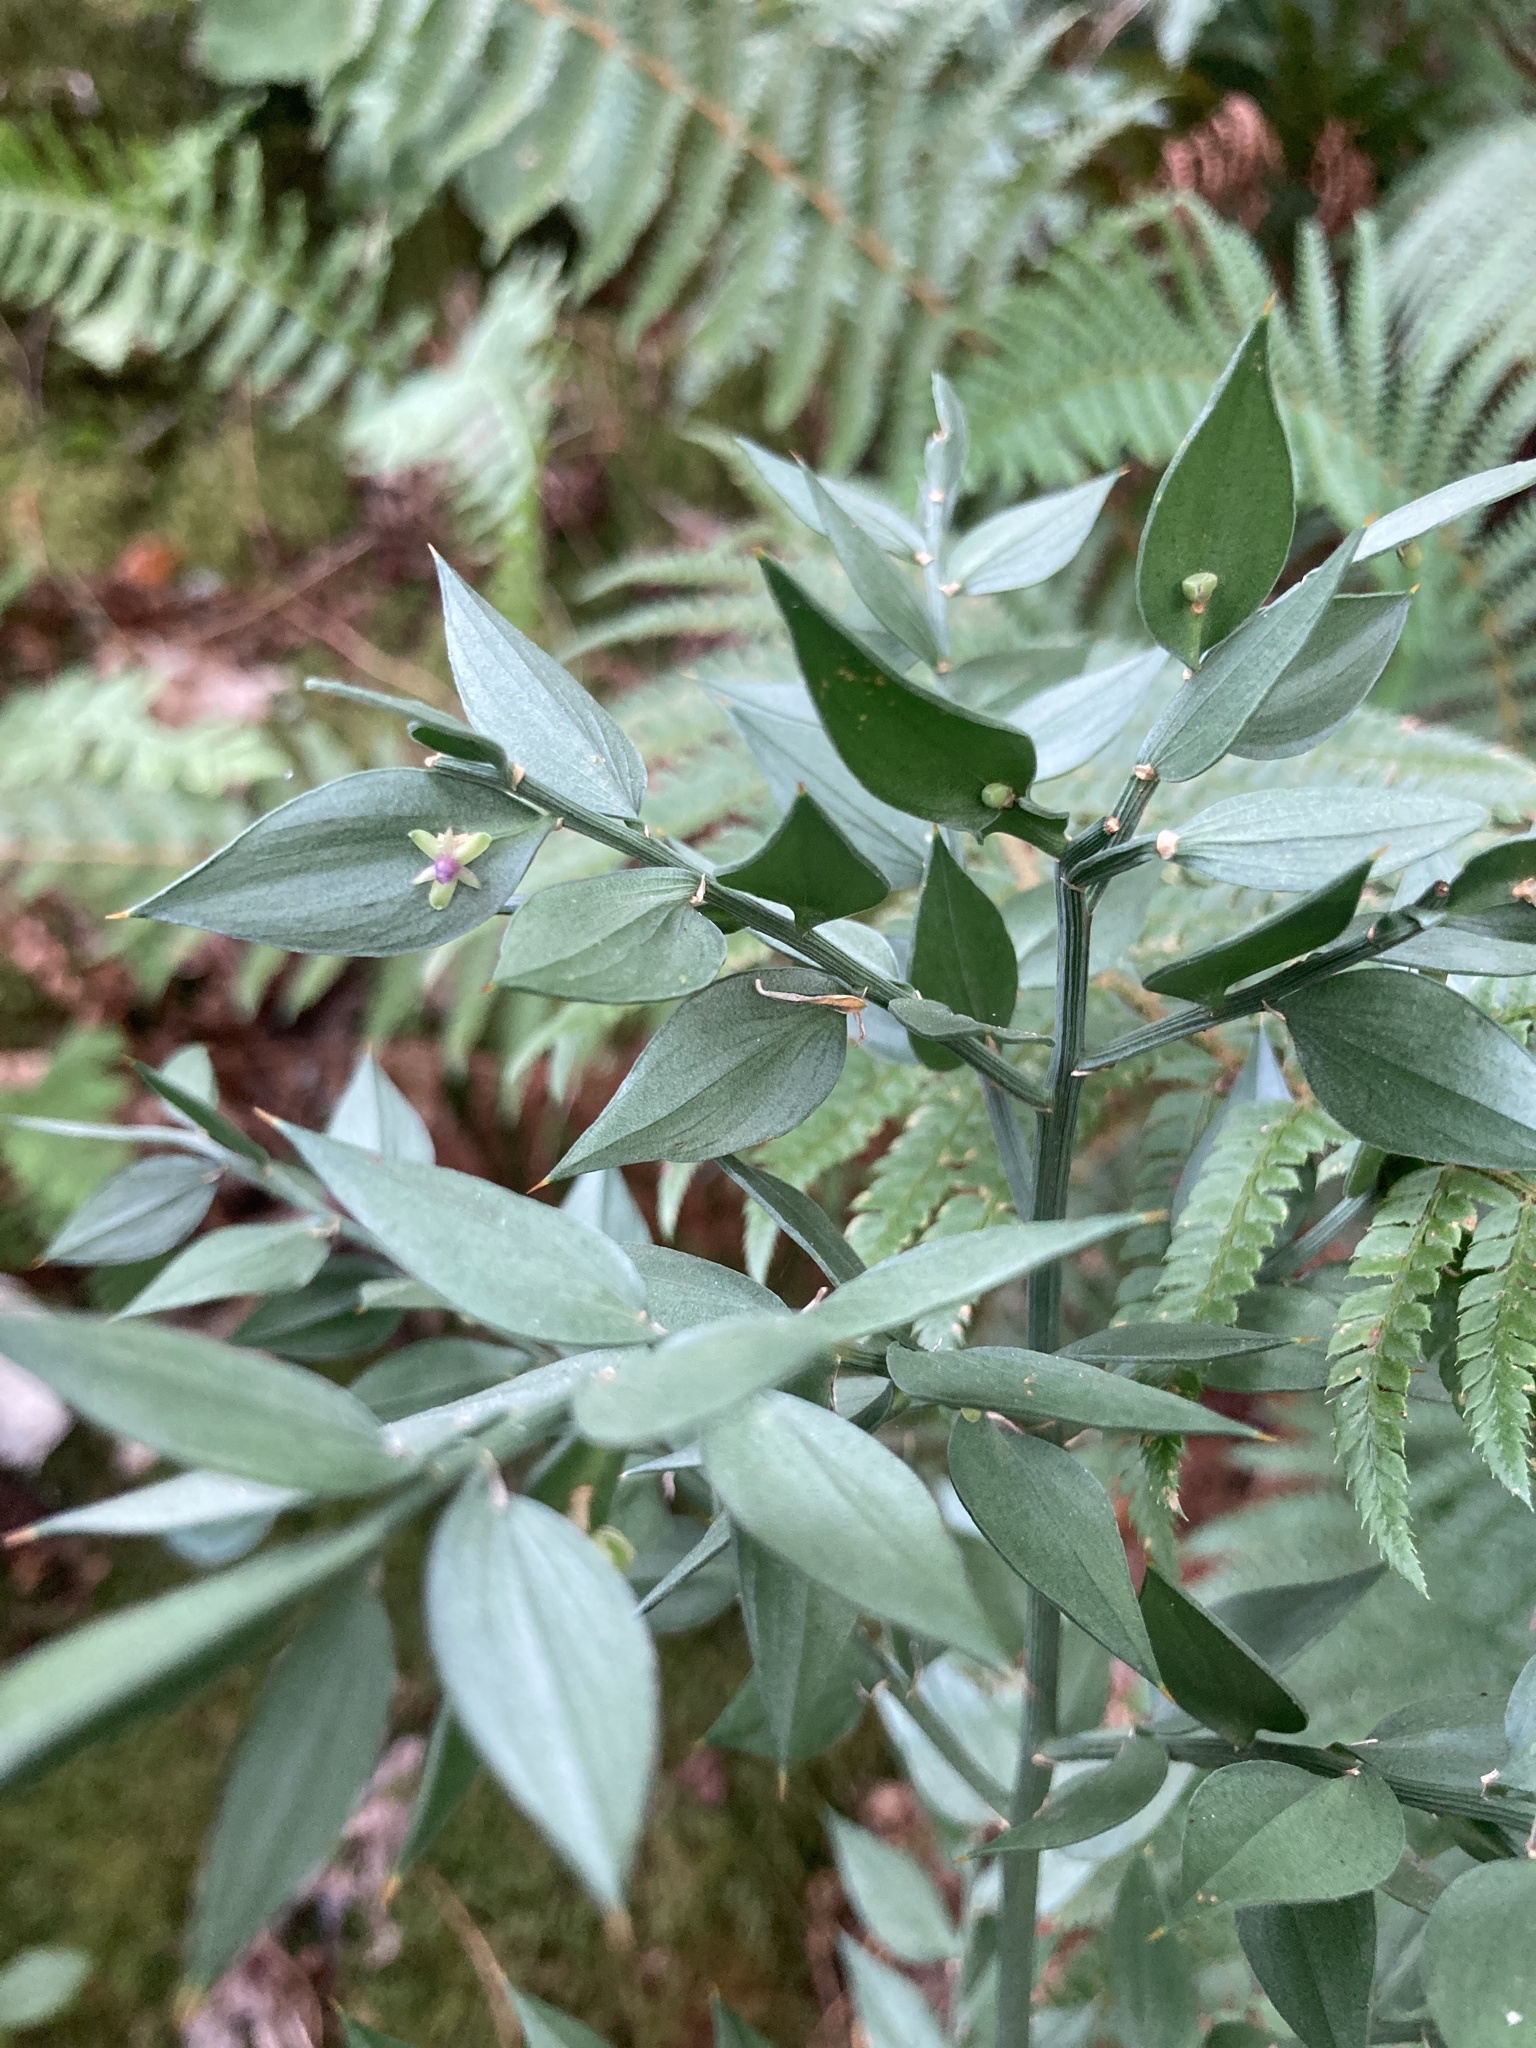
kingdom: Plantae
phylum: Tracheophyta
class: Liliopsida
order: Asparagales
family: Asparagaceae
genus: Ruscus
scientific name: Ruscus aculeatus
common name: Butcher's-broom
